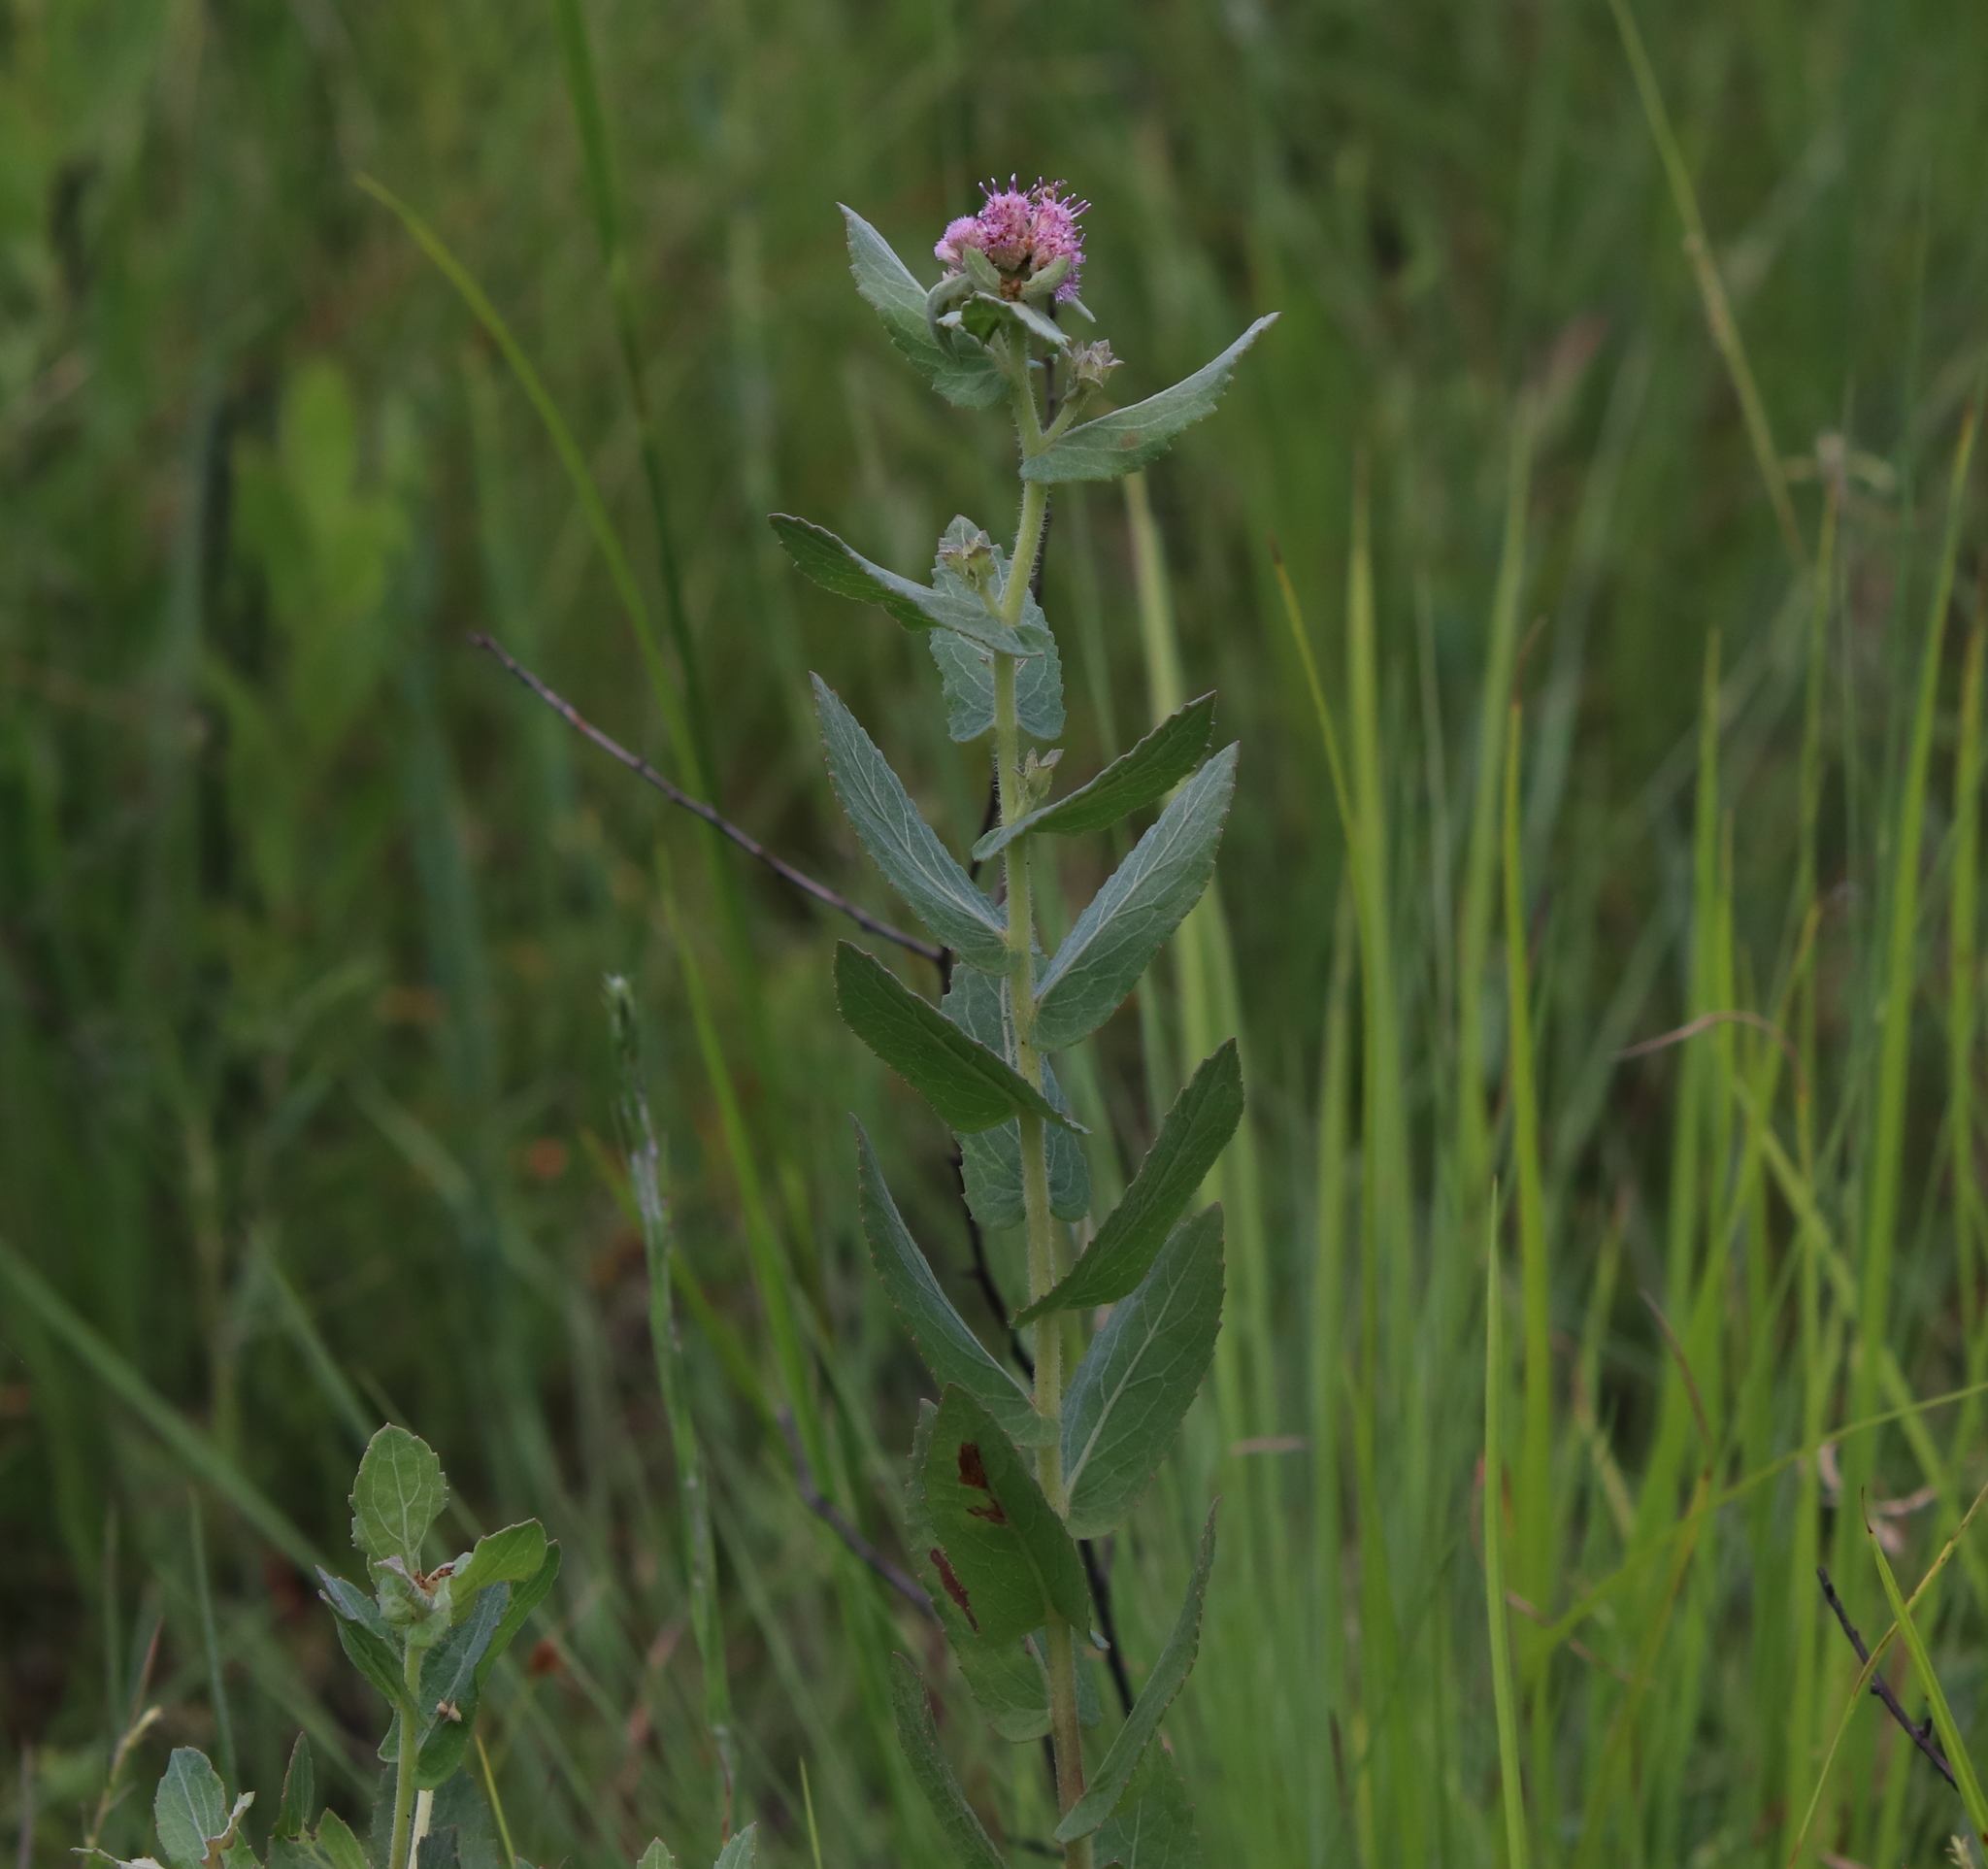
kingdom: Plantae
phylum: Tracheophyta
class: Magnoliopsida
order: Asterales
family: Asteraceae
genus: Pluchea
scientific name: Pluchea baccharis
